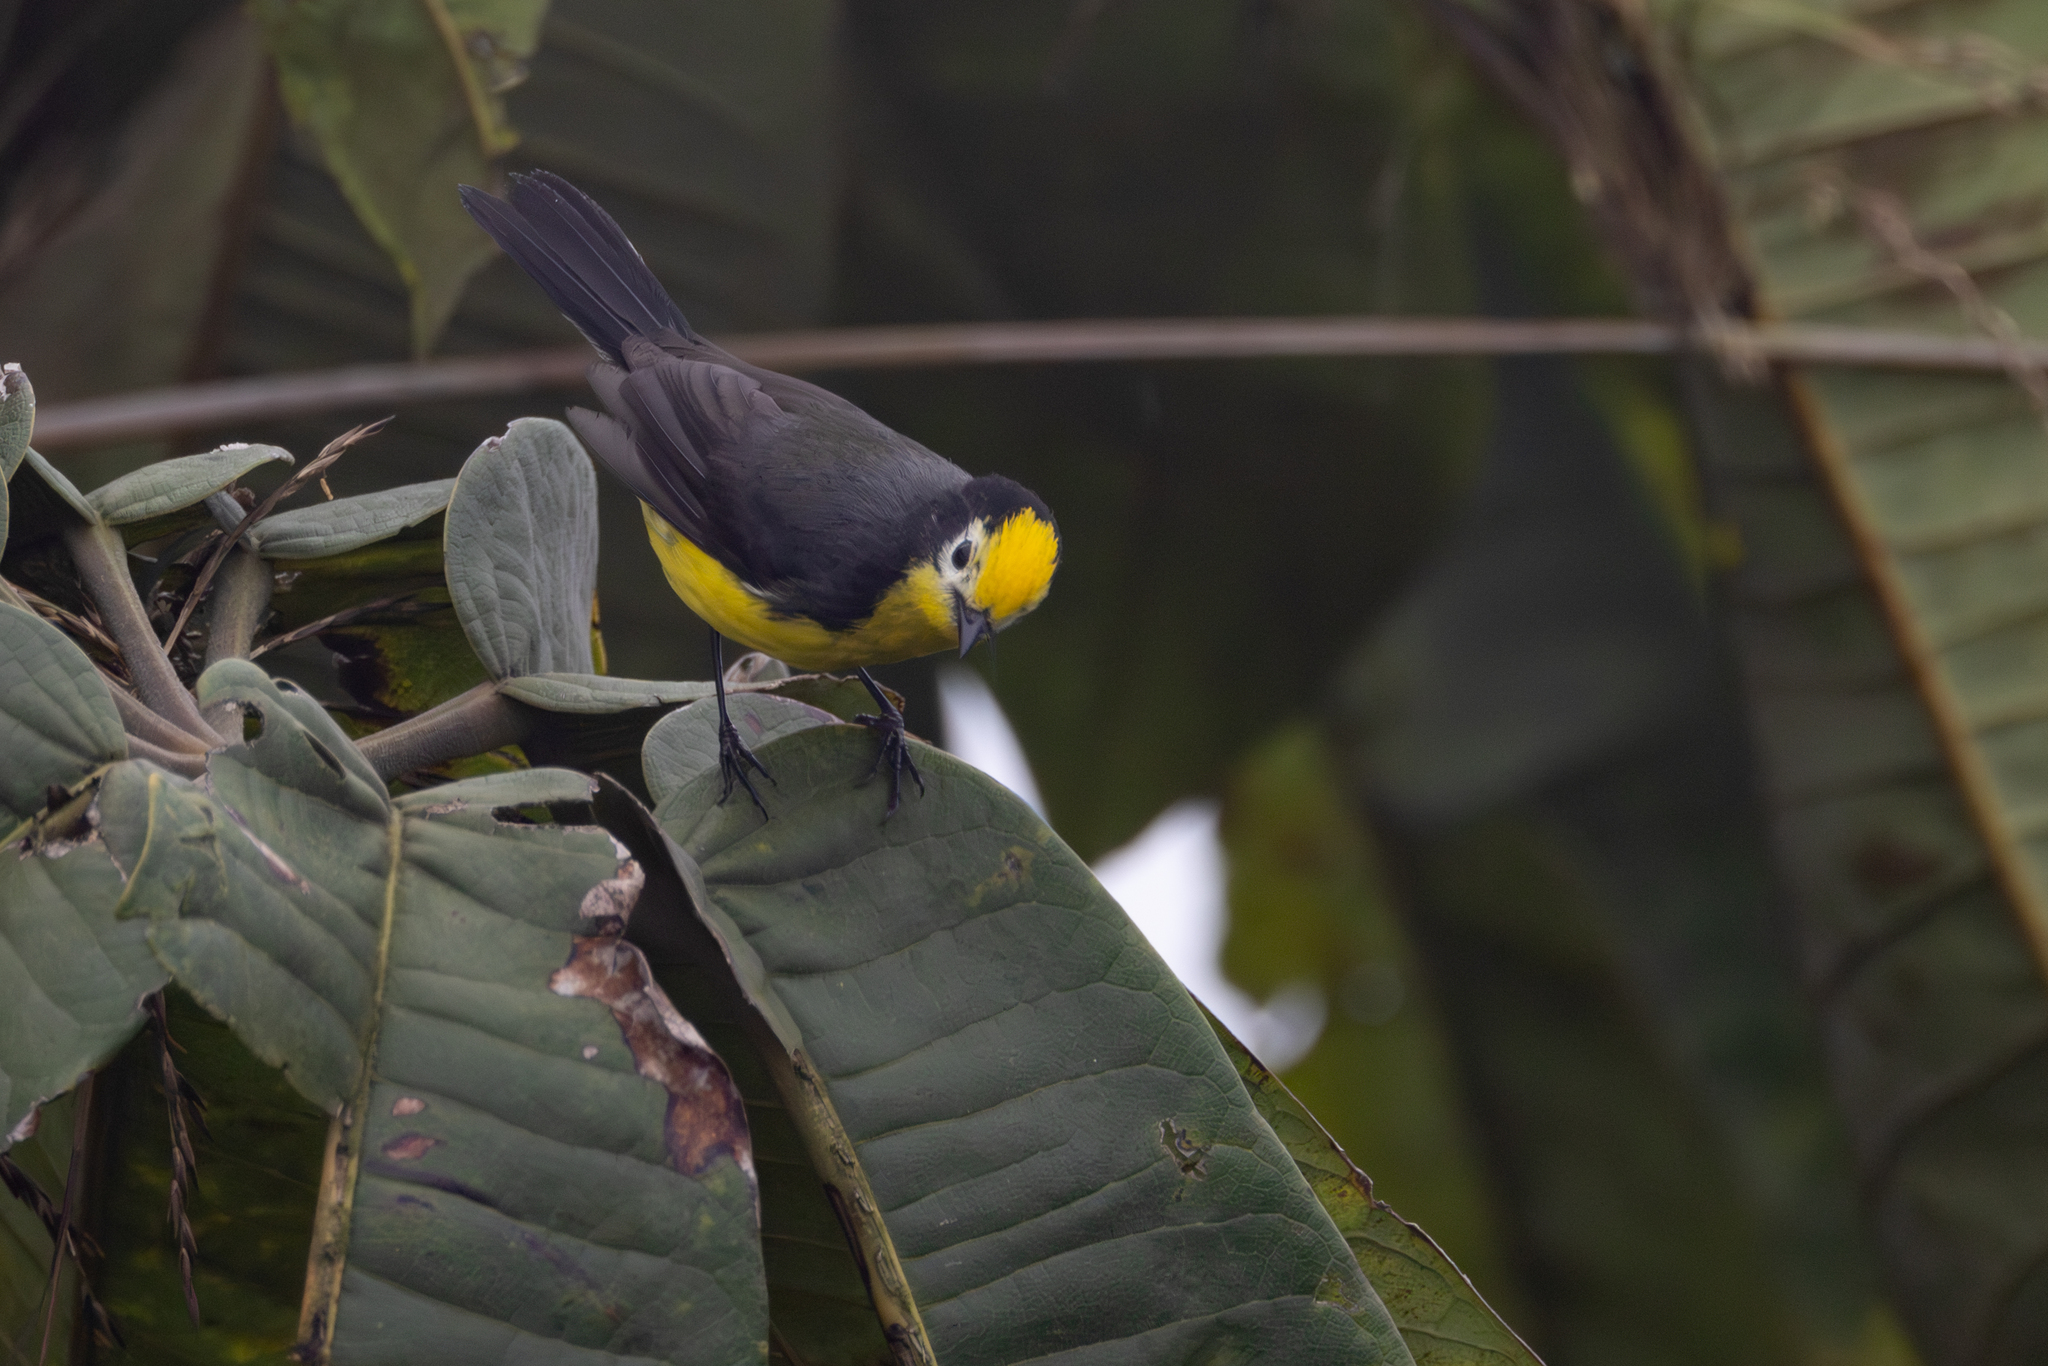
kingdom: Animalia
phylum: Chordata
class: Aves
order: Passeriformes
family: Parulidae
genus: Myioborus
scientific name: Myioborus ornatus
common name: Golden-fronted whitestart
